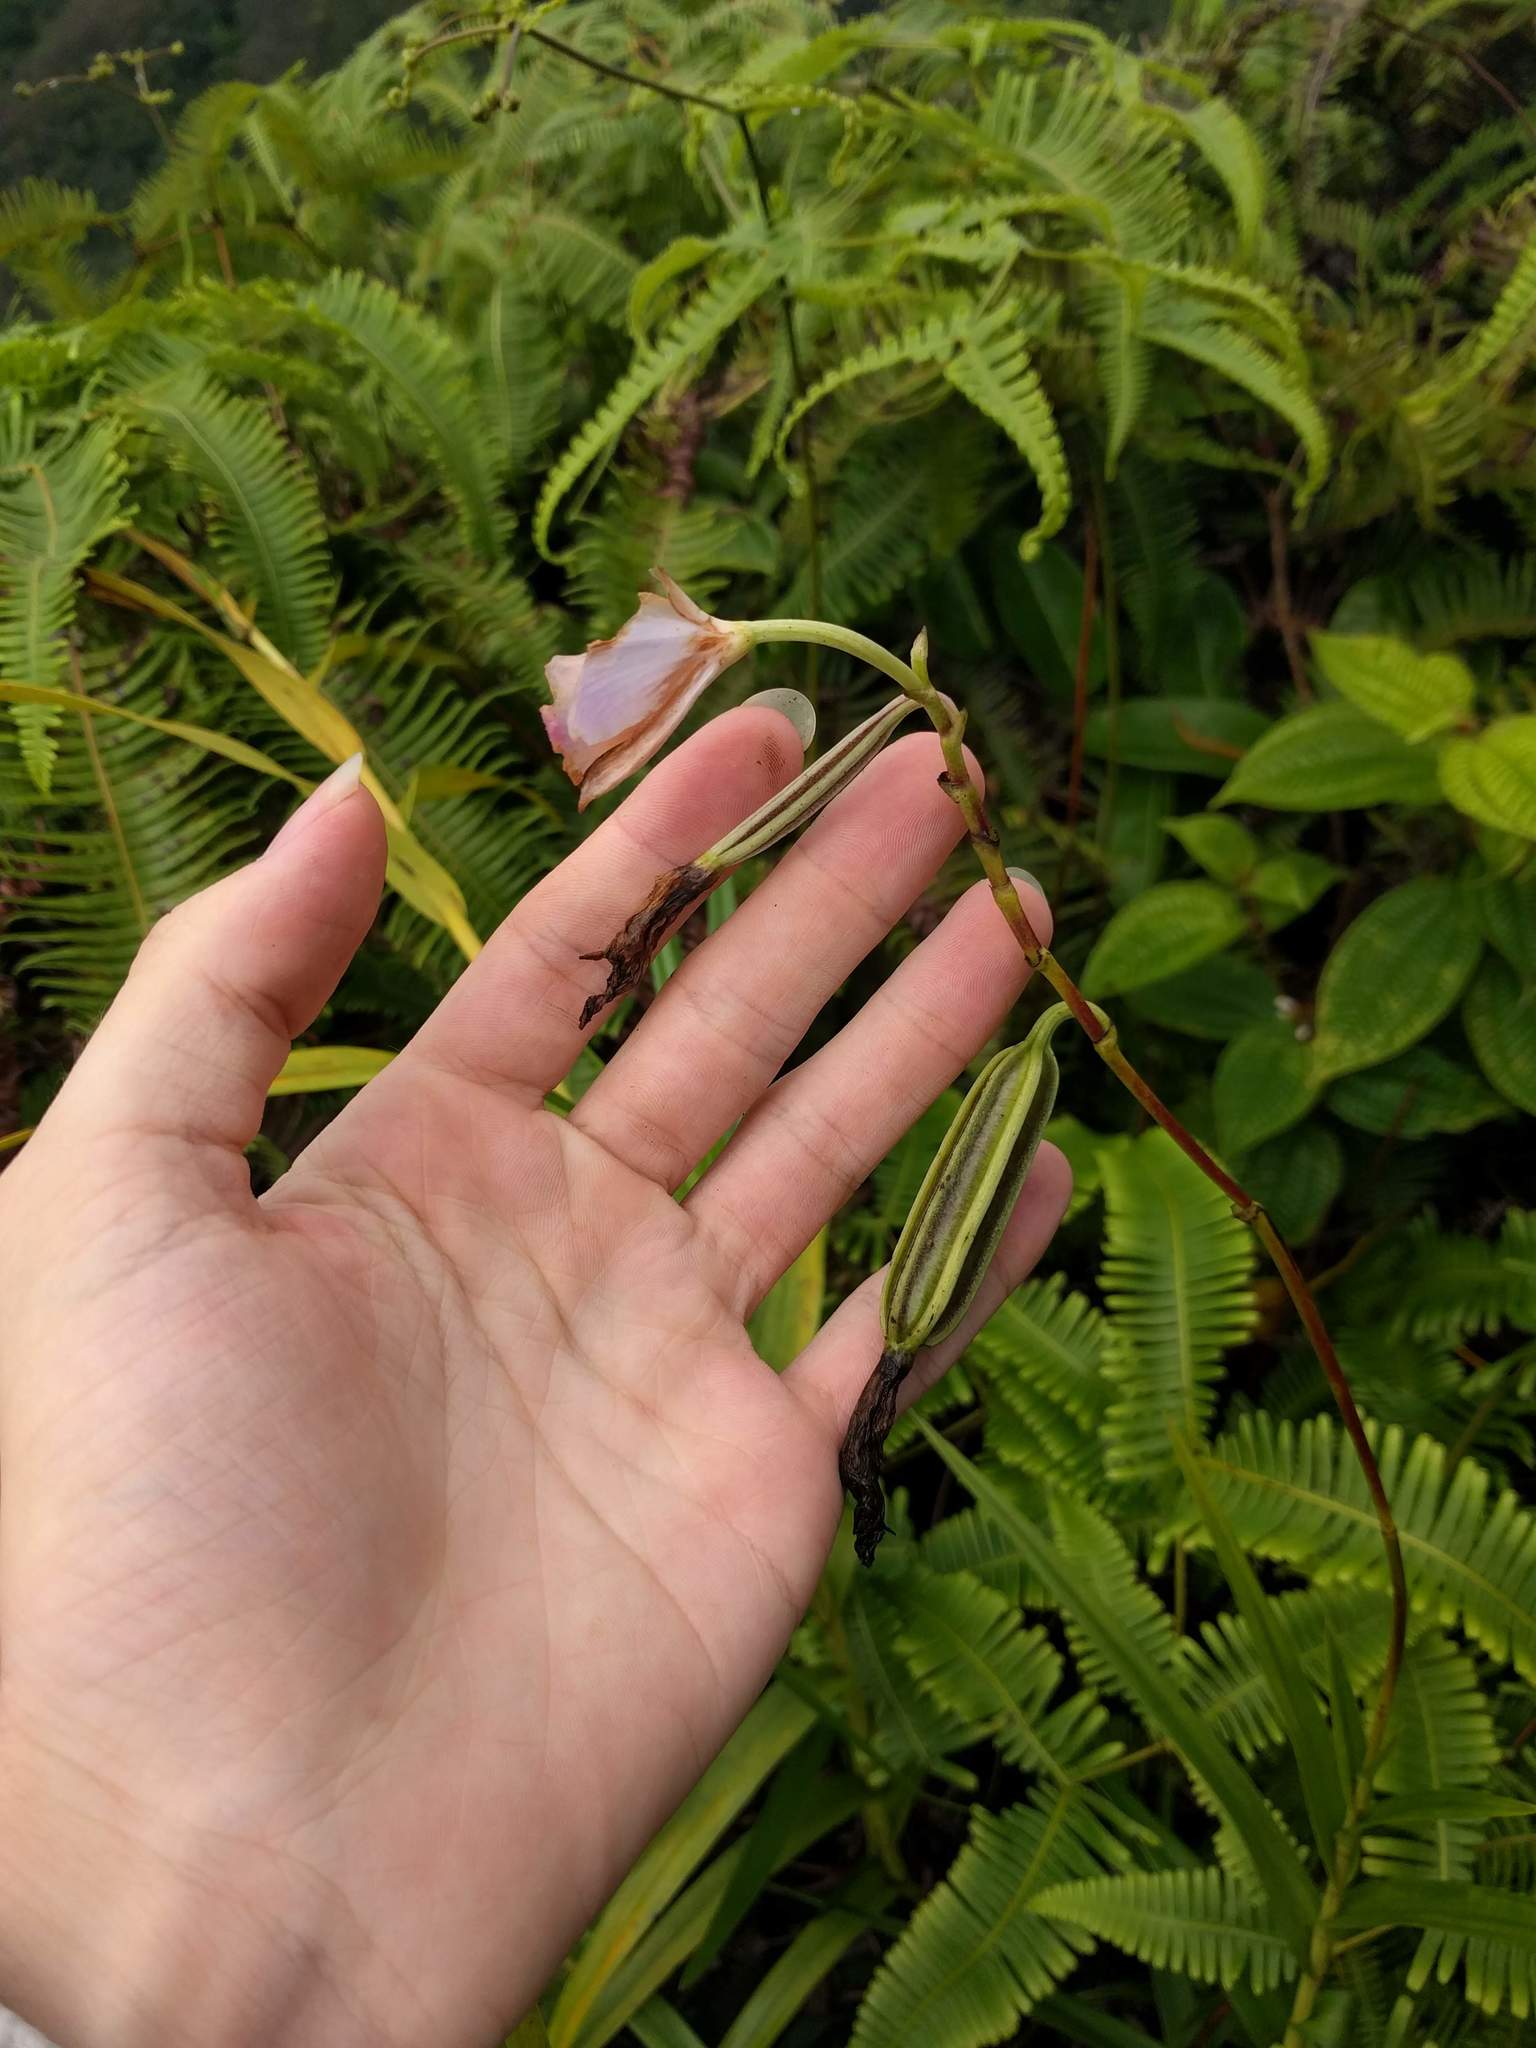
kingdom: Plantae
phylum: Tracheophyta
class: Liliopsida
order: Asparagales
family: Orchidaceae
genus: Arundina
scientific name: Arundina graminifolia
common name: Bamboo orchid
